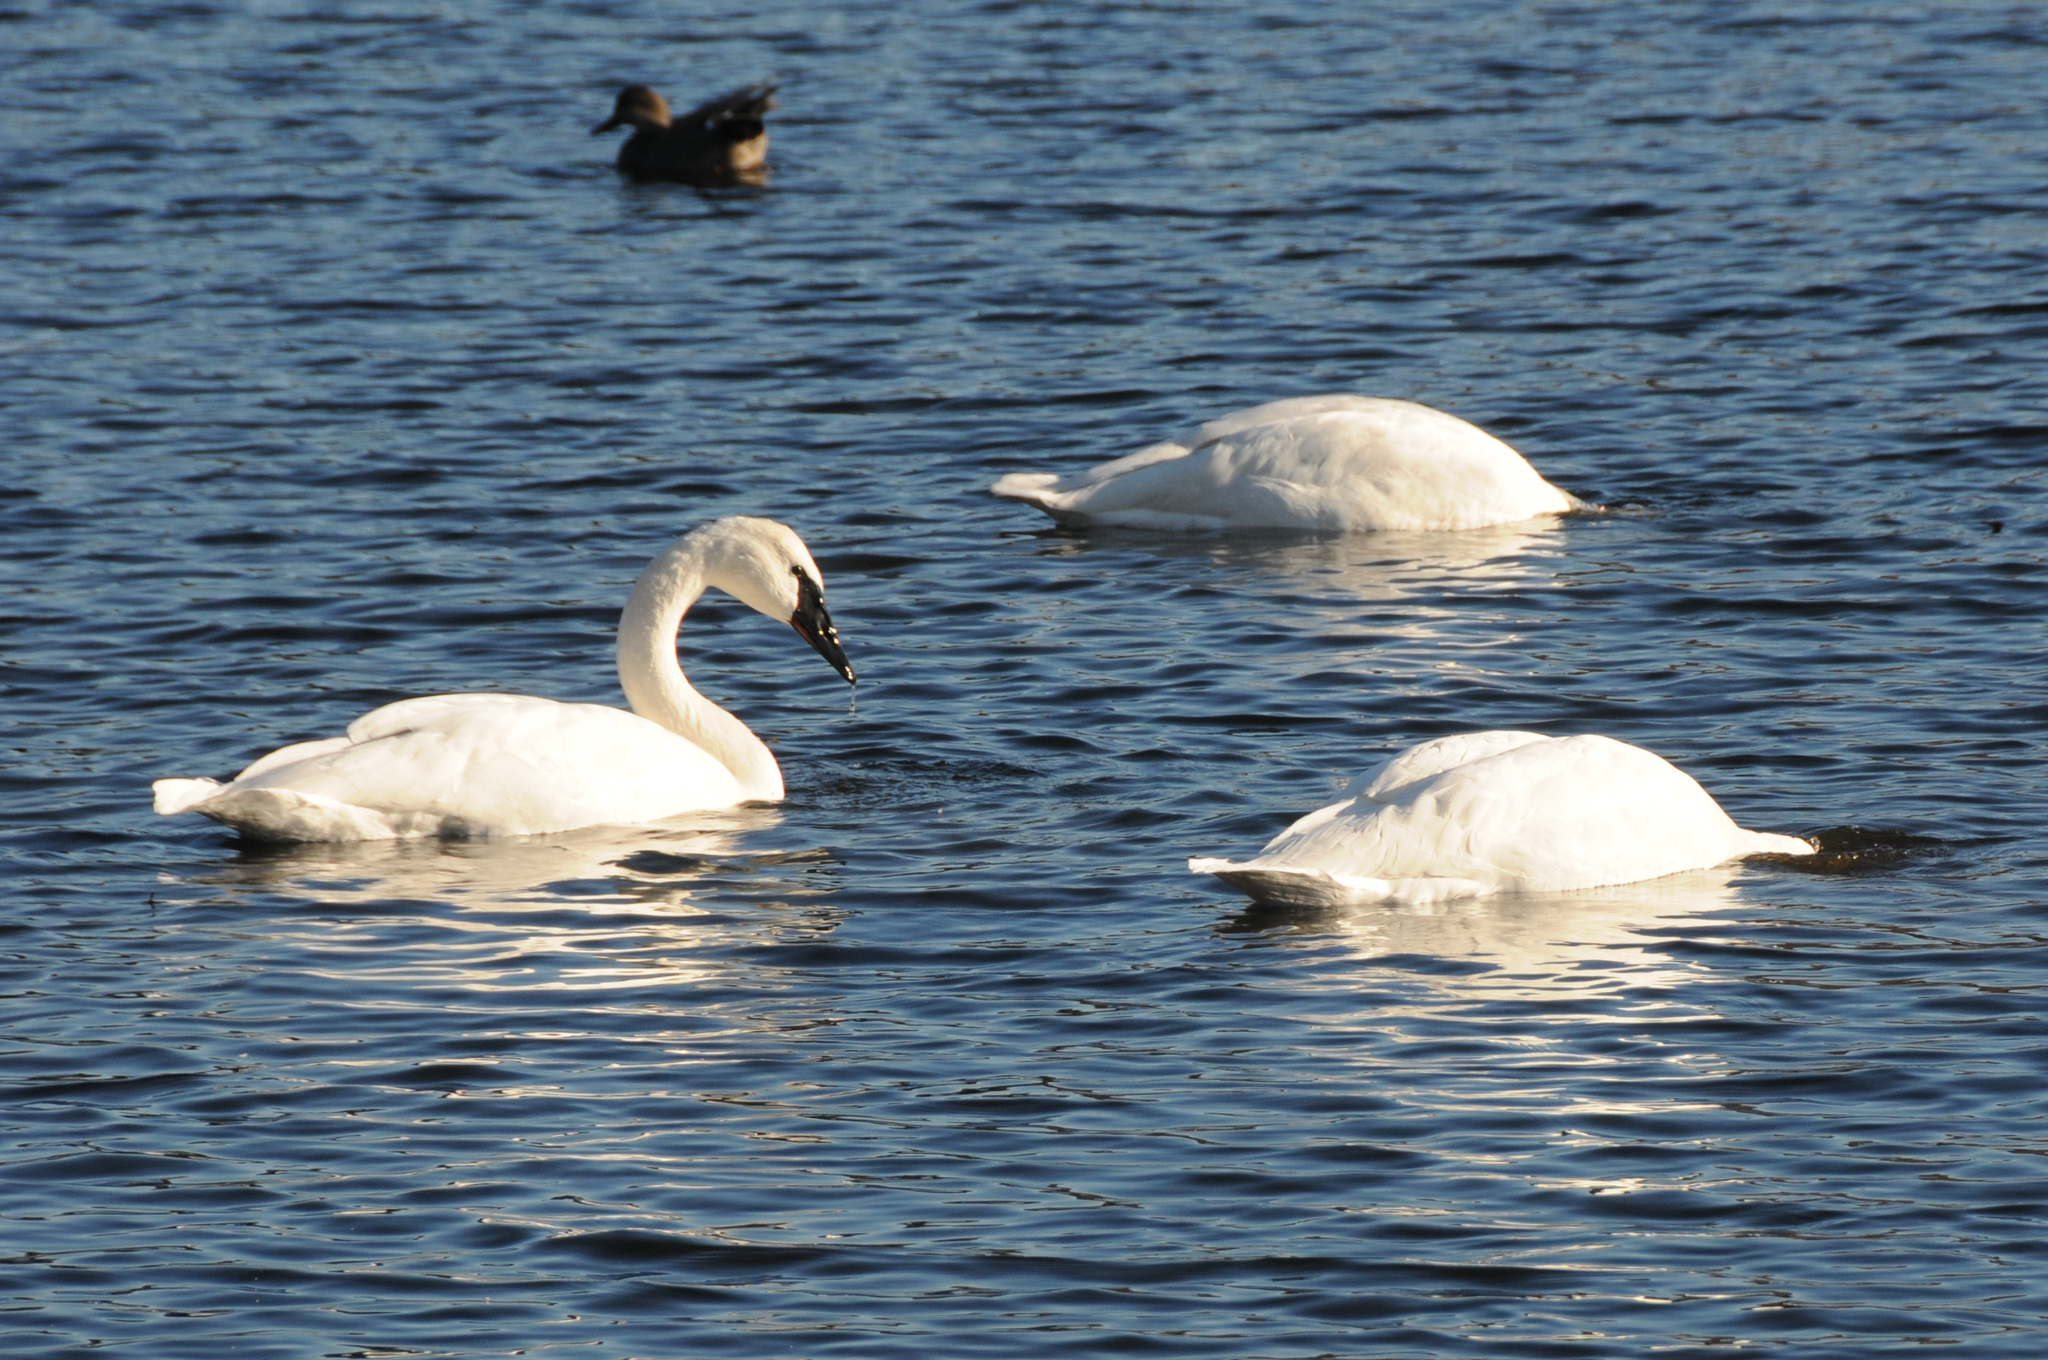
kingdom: Animalia
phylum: Chordata
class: Aves
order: Anseriformes
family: Anatidae
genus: Cygnus
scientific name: Cygnus buccinator
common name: Trumpeter swan
